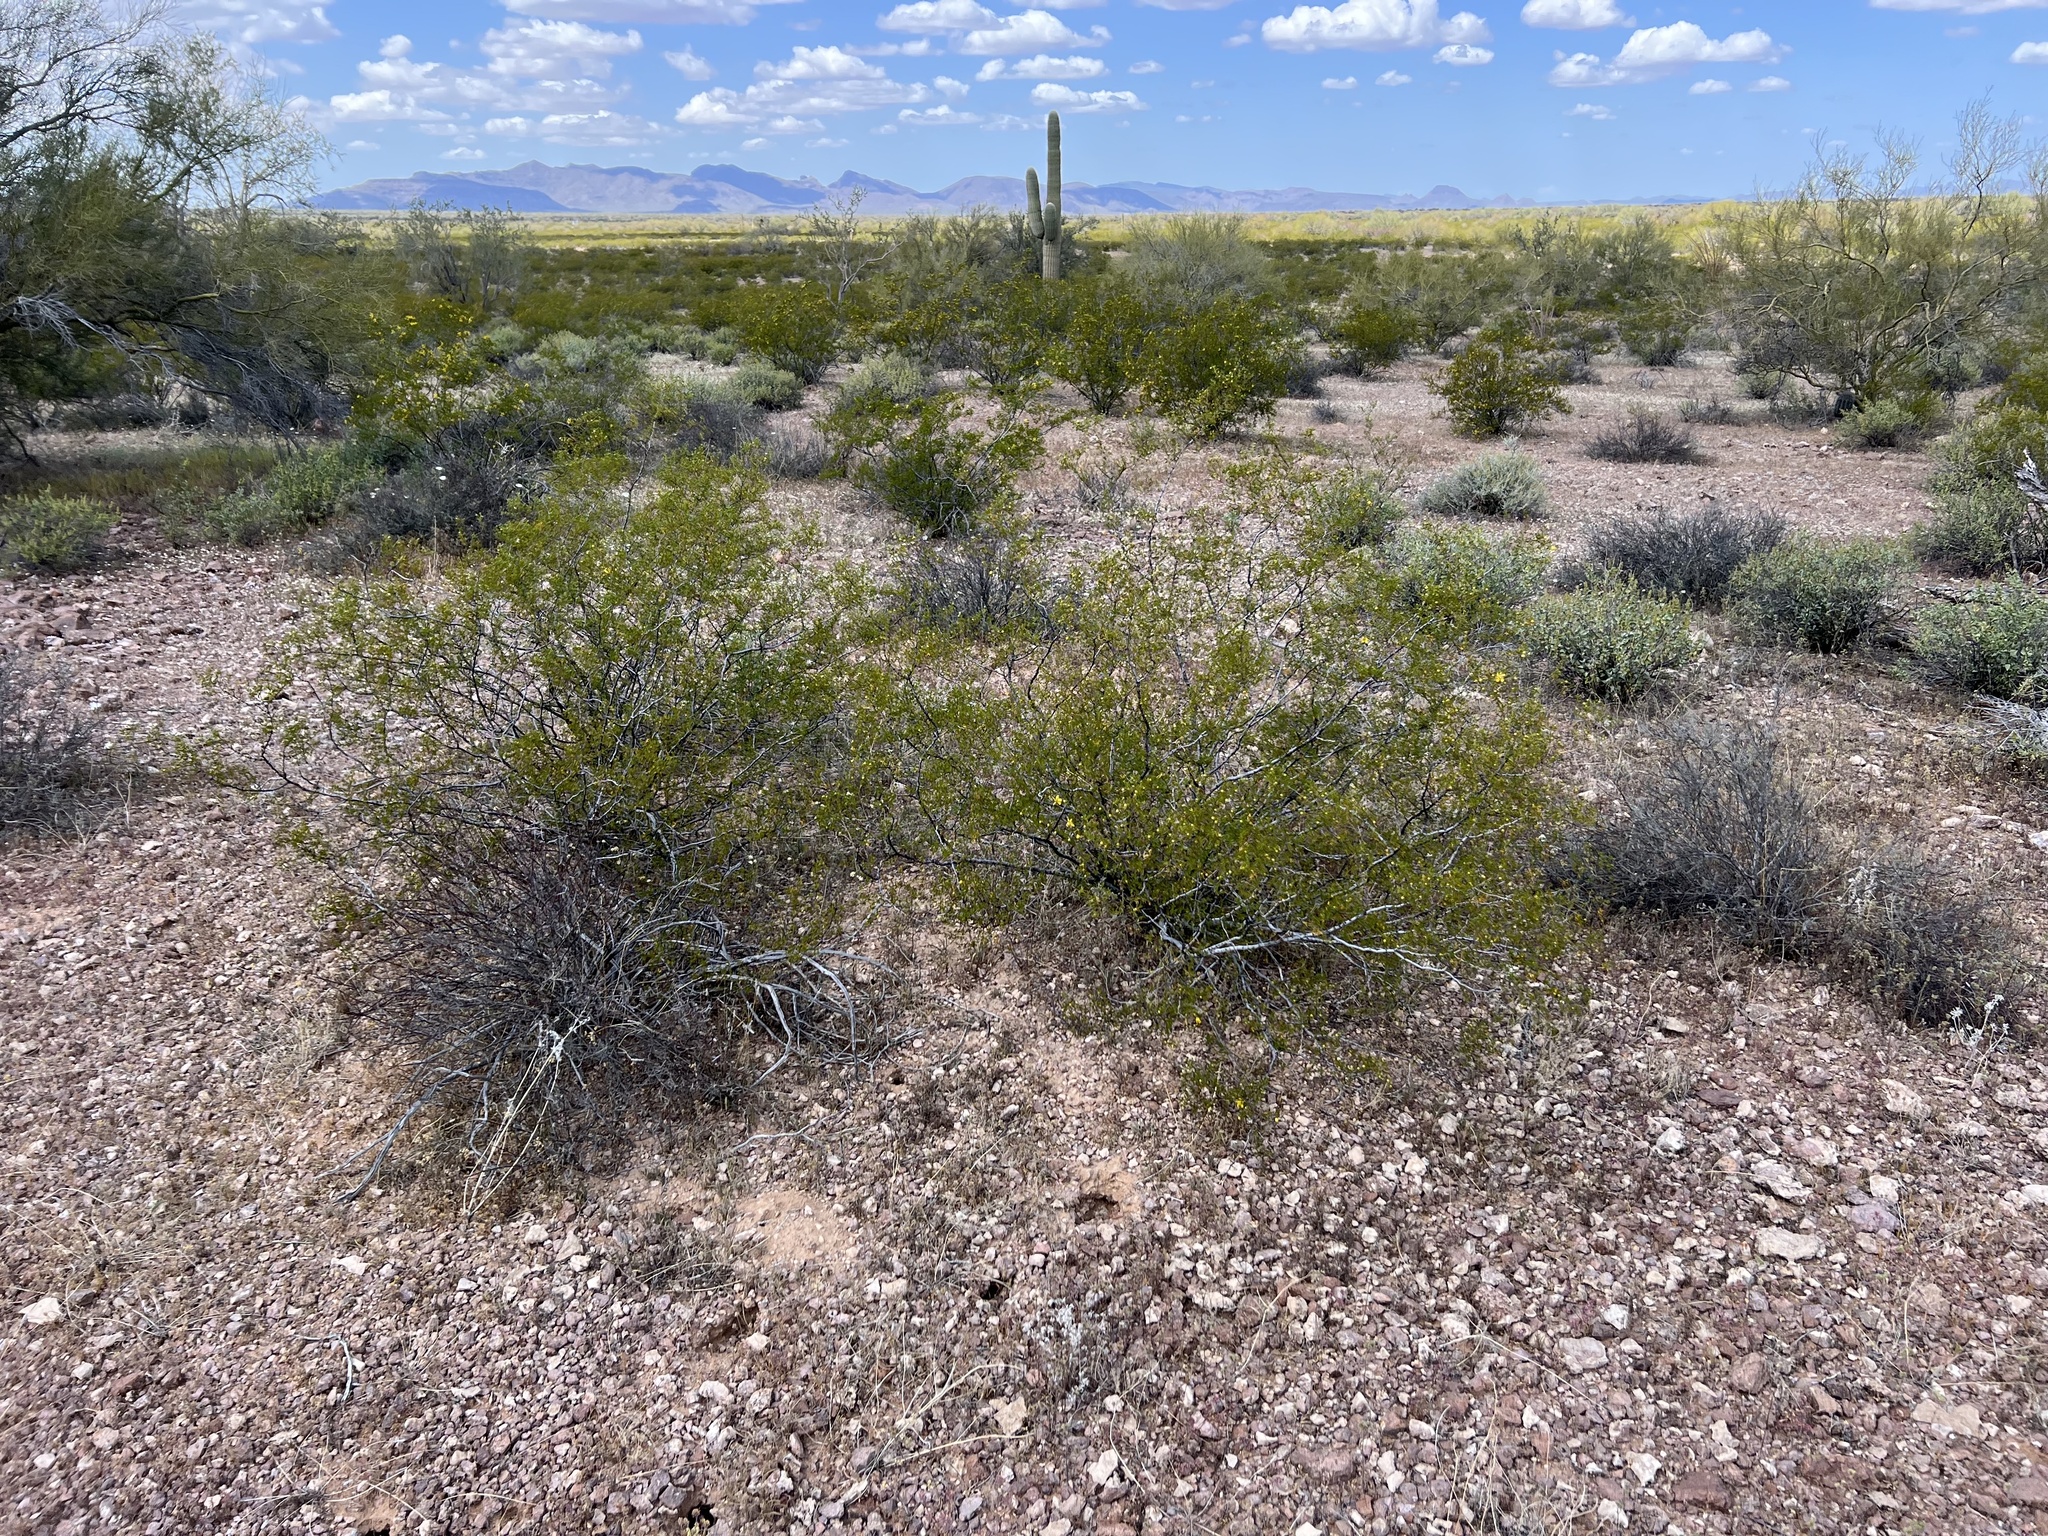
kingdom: Plantae
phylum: Tracheophyta
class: Magnoliopsida
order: Zygophyllales
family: Zygophyllaceae
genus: Larrea
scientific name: Larrea tridentata
